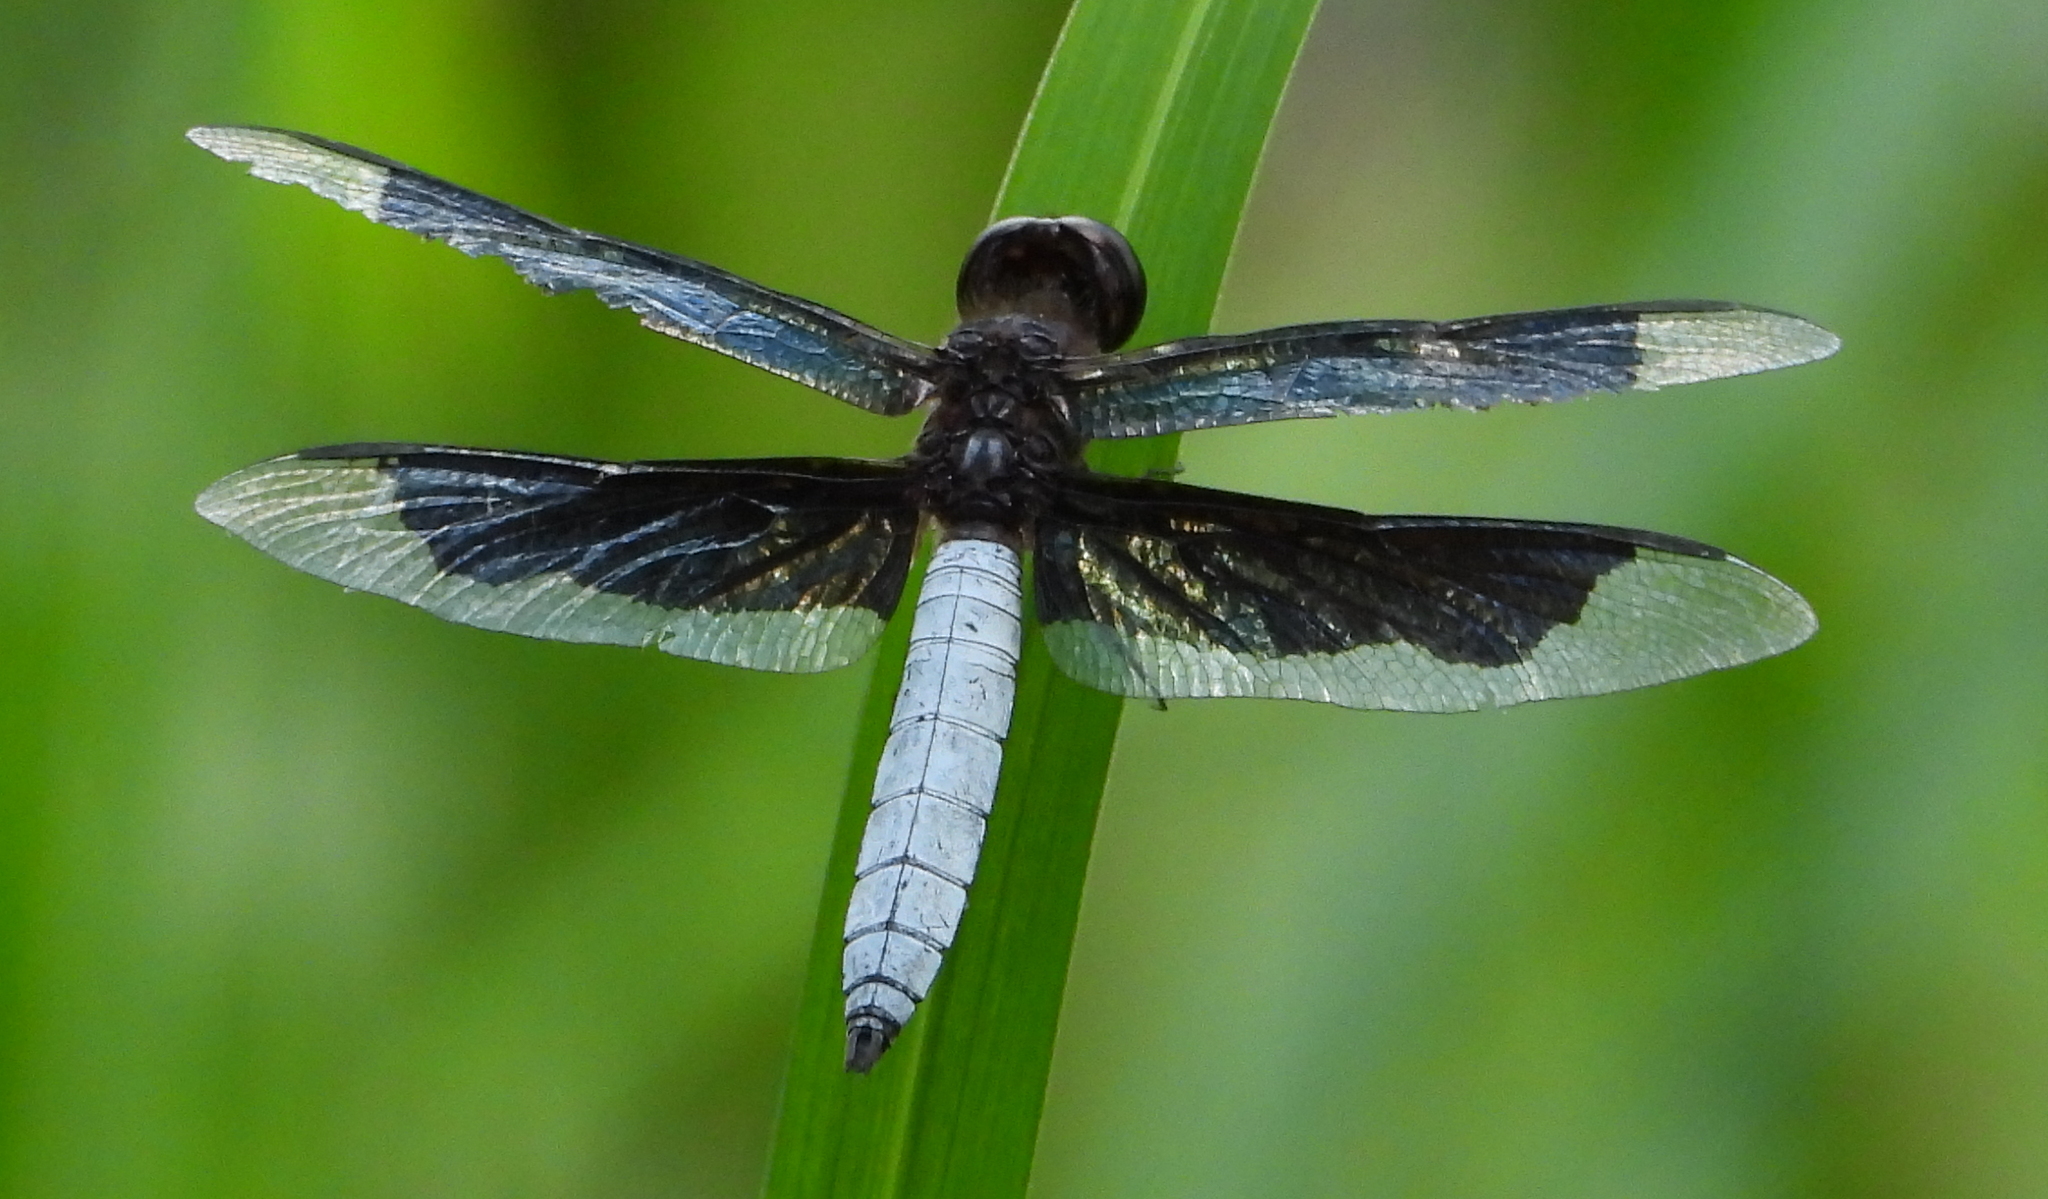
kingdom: Animalia
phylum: Arthropoda
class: Insecta
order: Odonata
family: Libellulidae
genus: Palpopleura
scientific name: Palpopleura lucia
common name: Lucia widow
